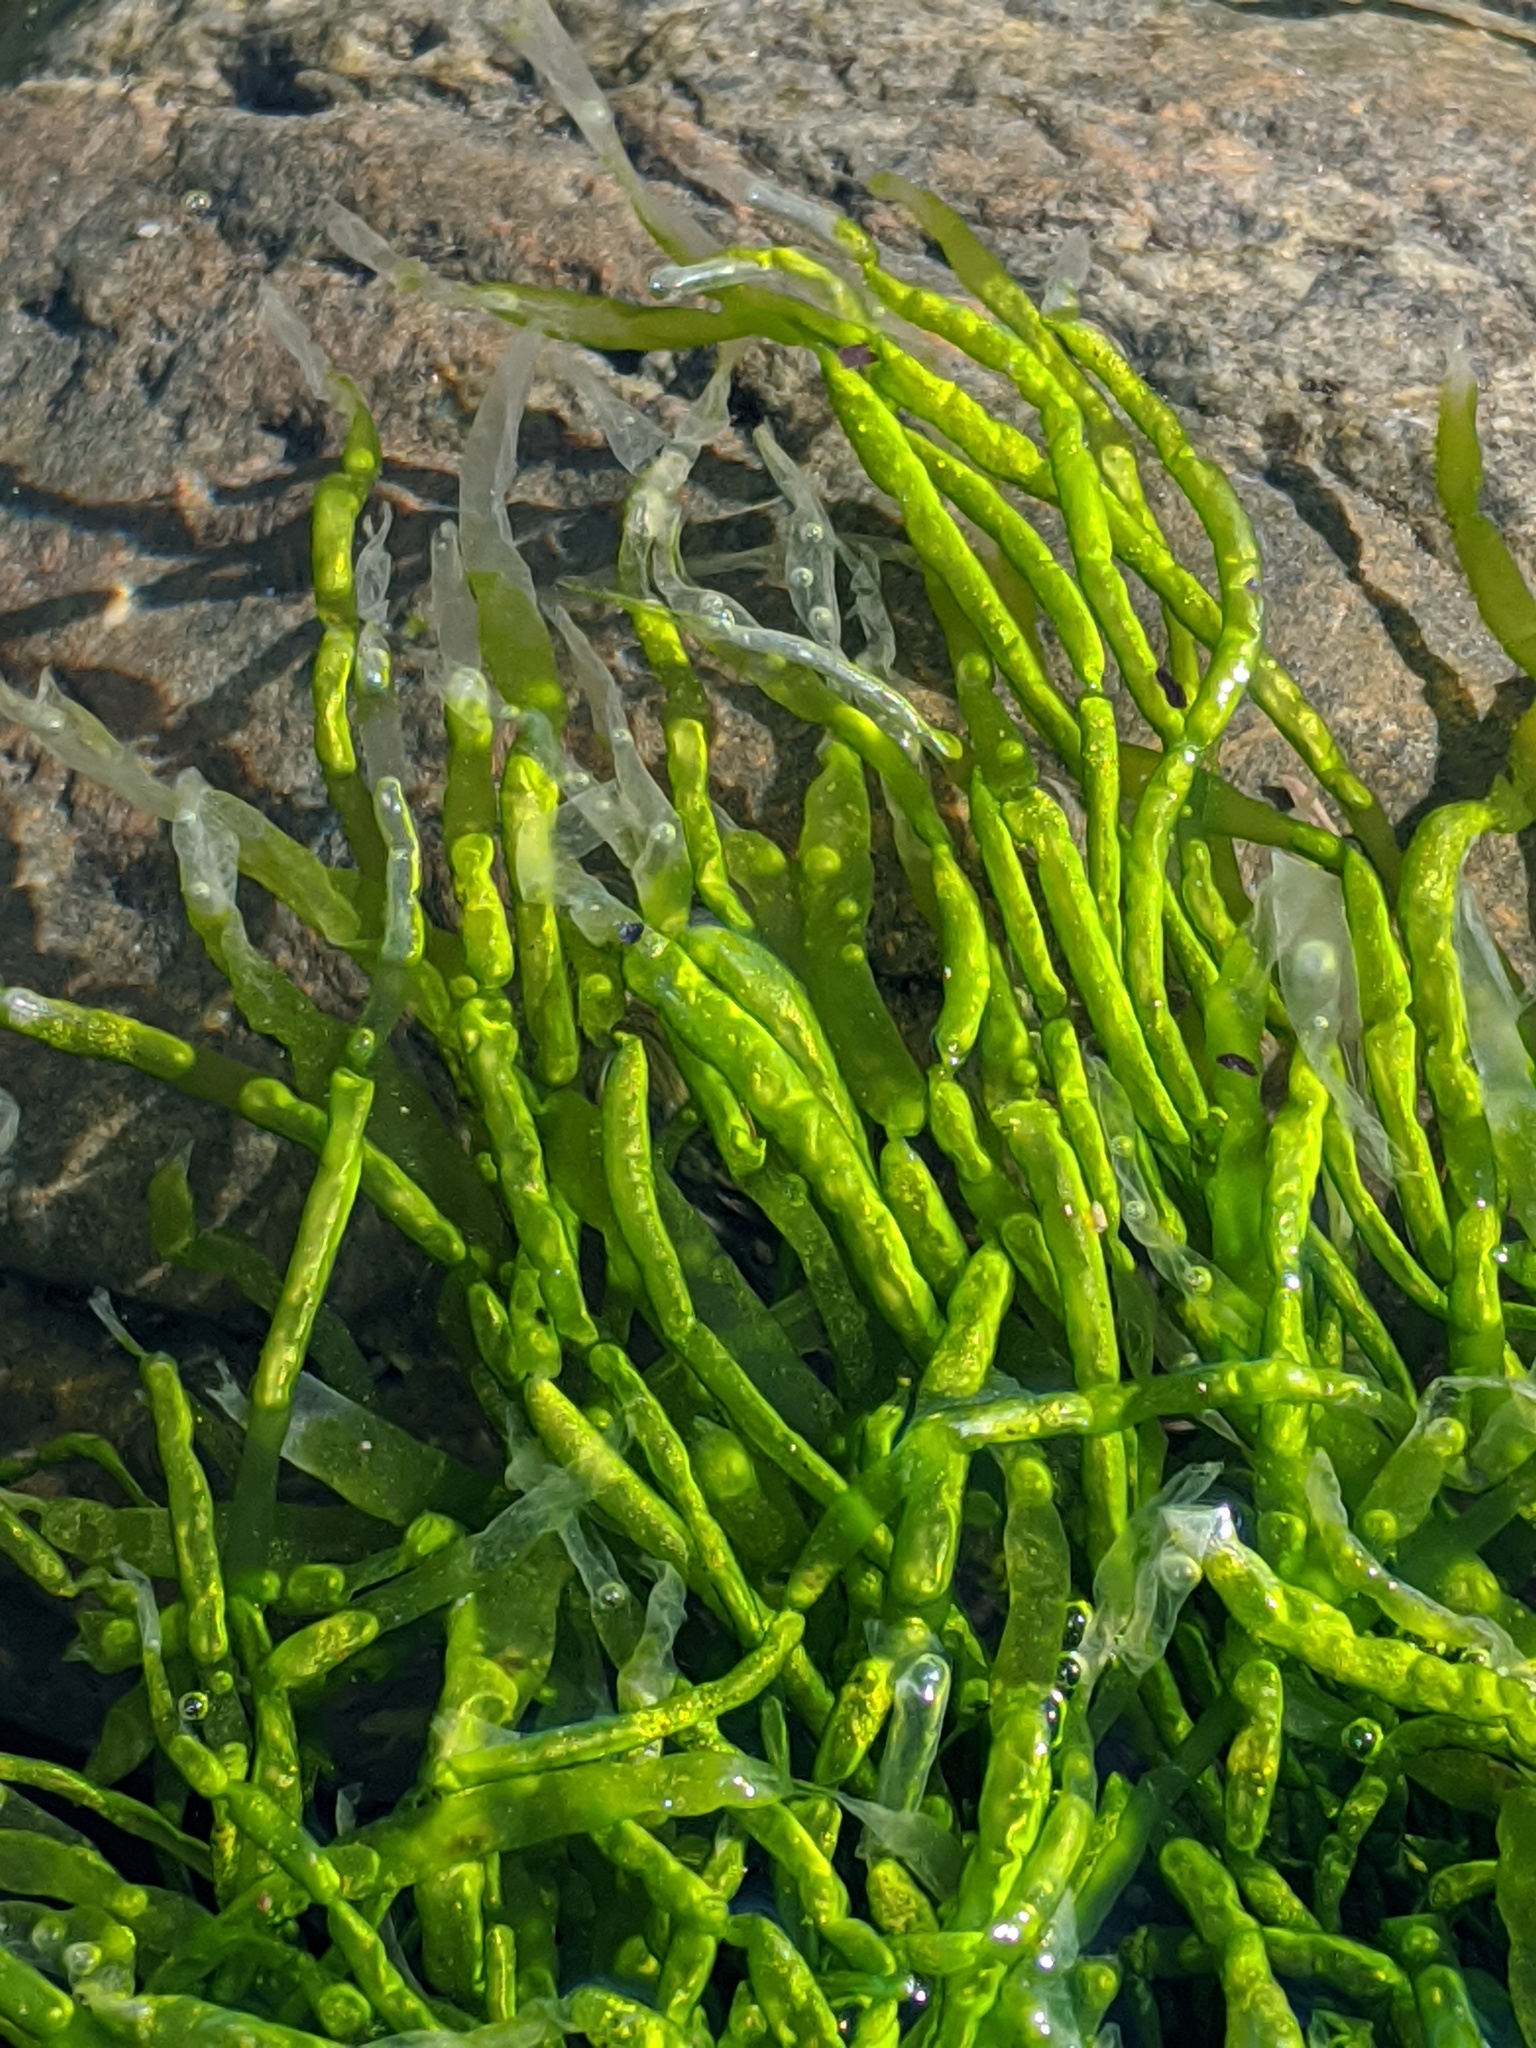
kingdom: Plantae
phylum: Chlorophyta
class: Ulvophyceae
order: Ulvales
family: Ulvaceae
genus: Ulva
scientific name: Ulva intestinalis
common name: Gut weed
